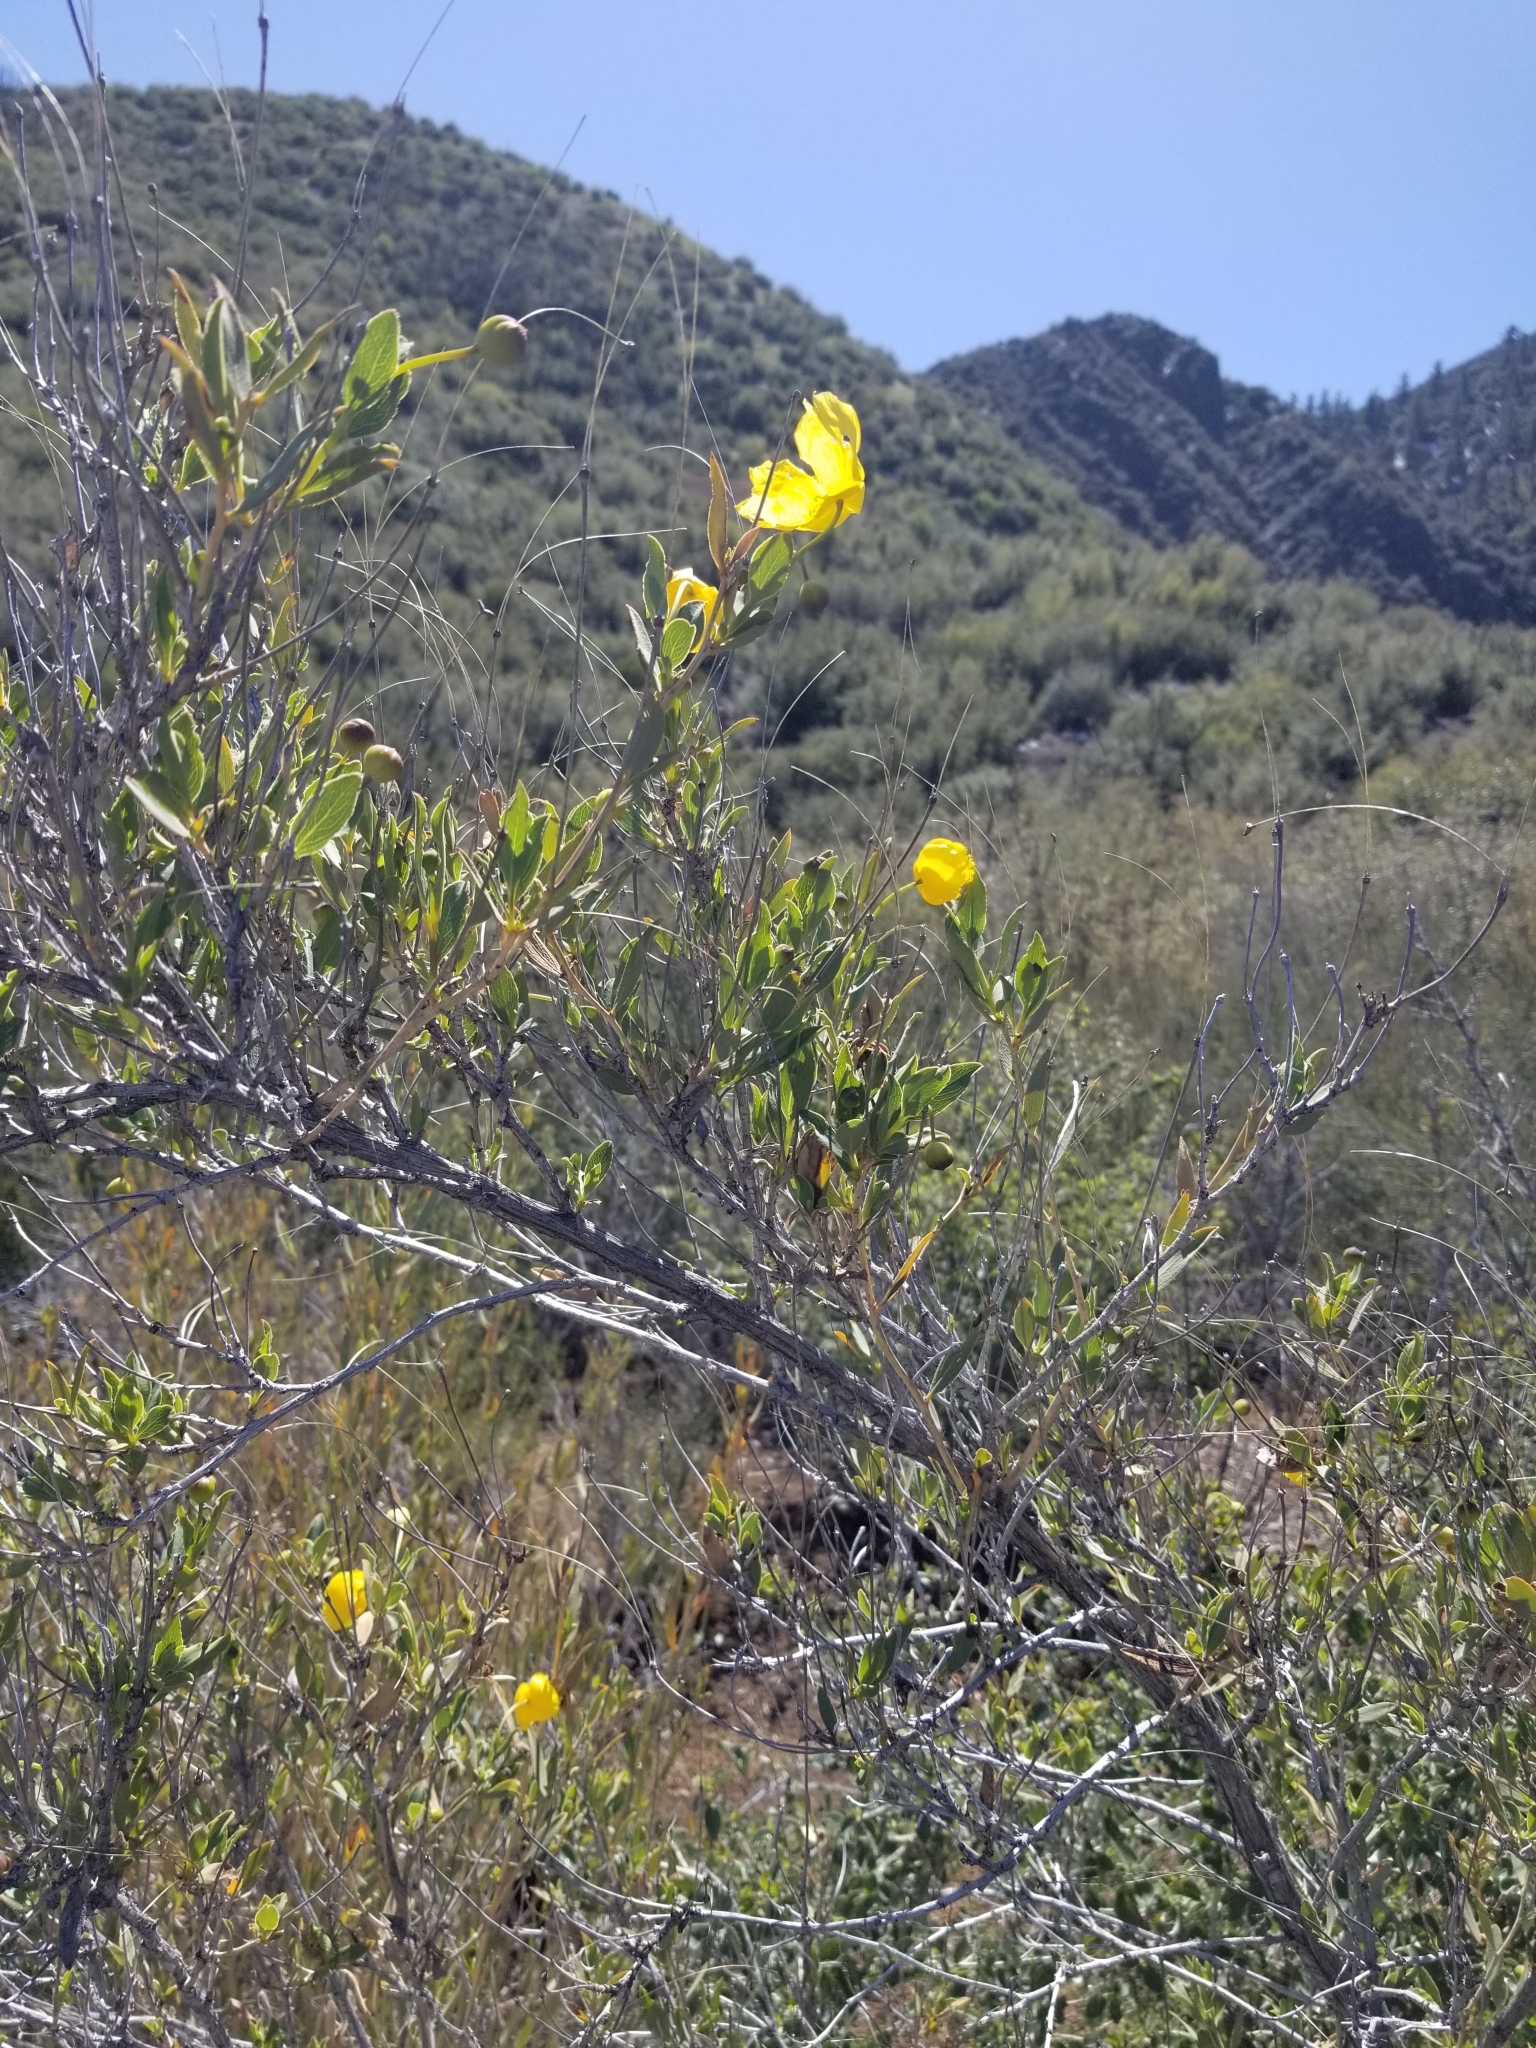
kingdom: Plantae
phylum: Tracheophyta
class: Magnoliopsida
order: Ranunculales
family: Papaveraceae
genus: Dendromecon
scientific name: Dendromecon rigida
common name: Tree poppy
